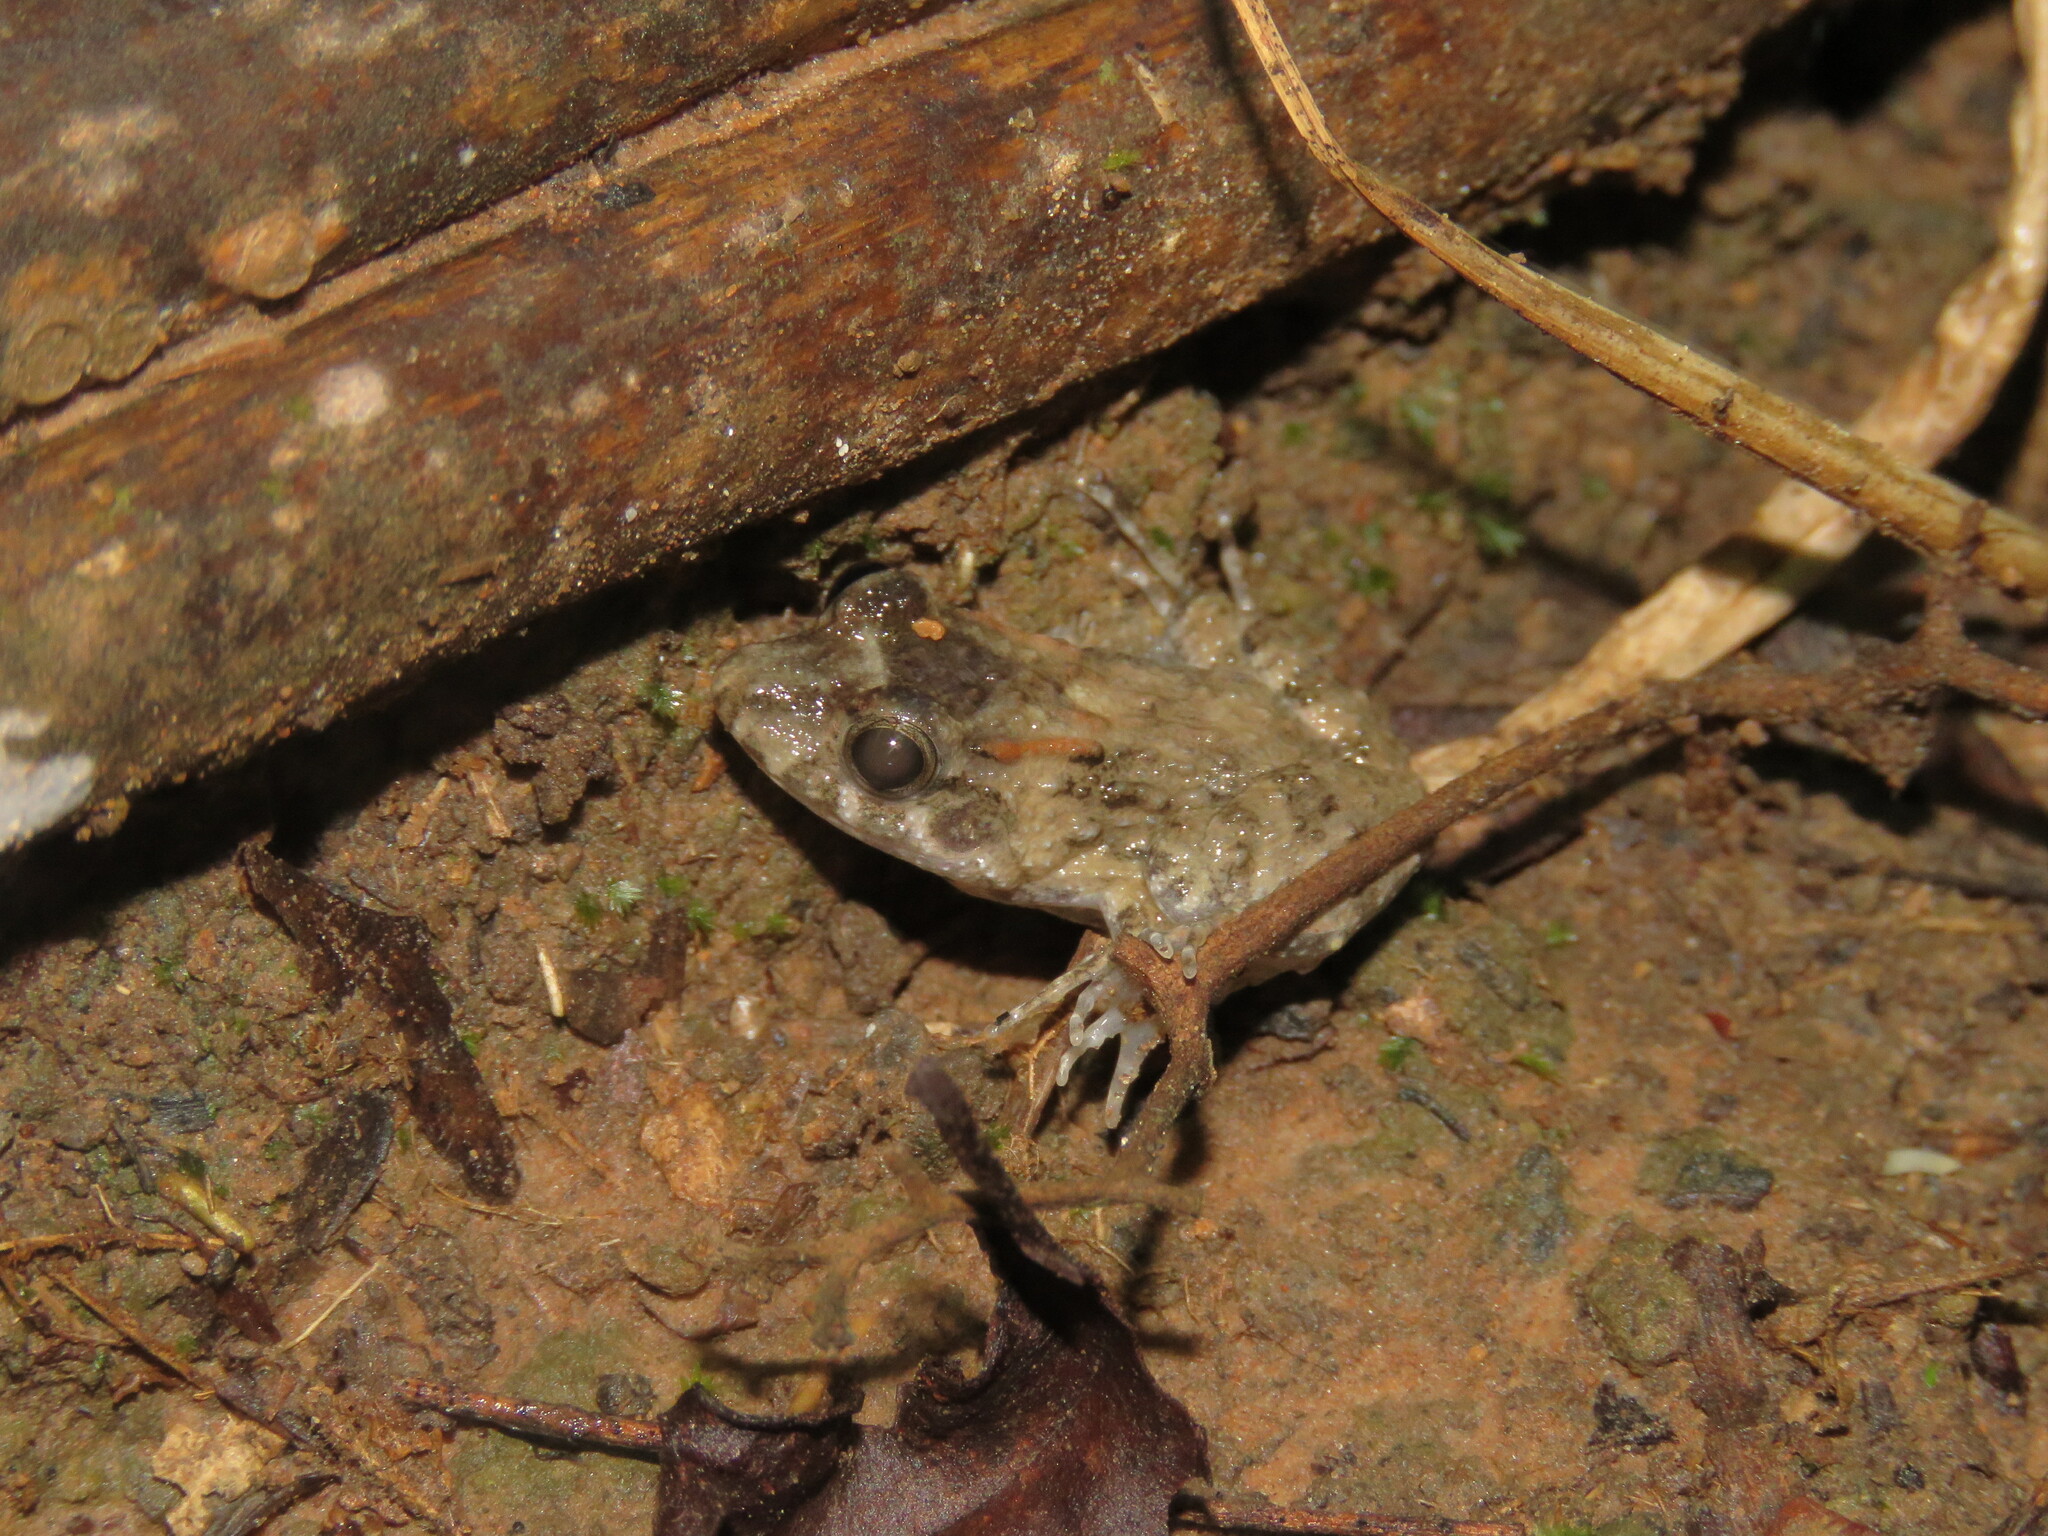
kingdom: Animalia
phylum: Chordata
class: Amphibia
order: Anura
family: Leptodactylidae
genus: Leptodactylus
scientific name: Leptodactylus leptodactyloides
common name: Common thin-toed frog
